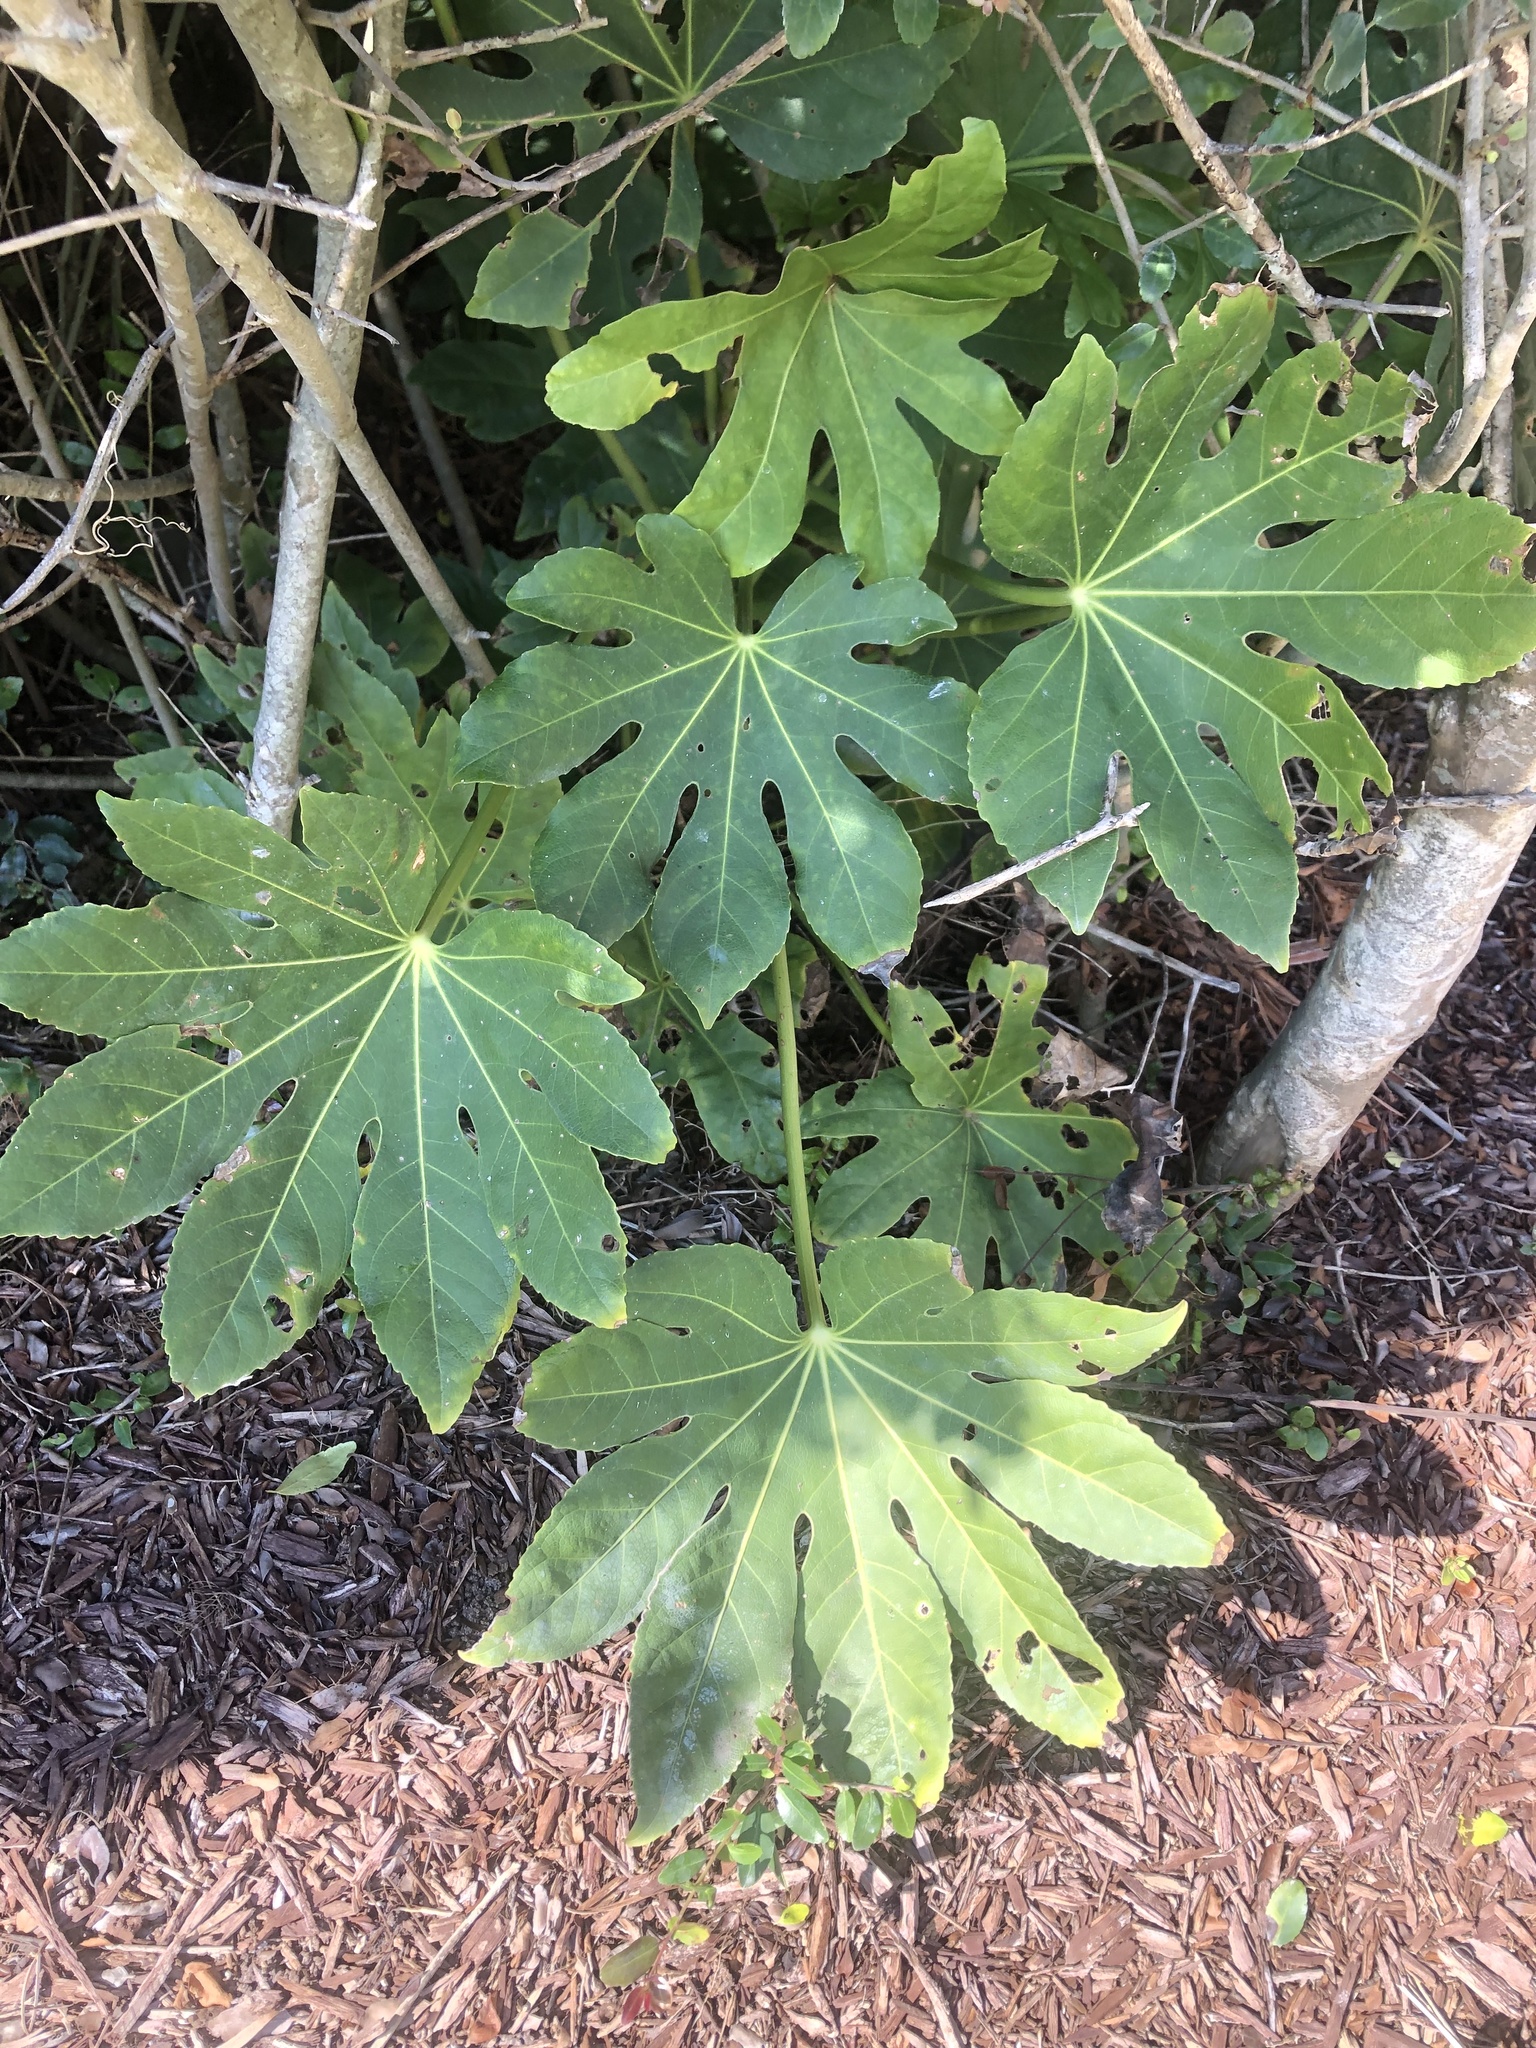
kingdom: Plantae
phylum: Tracheophyta
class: Magnoliopsida
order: Apiales
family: Araliaceae
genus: Fatsia
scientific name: Fatsia japonica
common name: Fatsia
